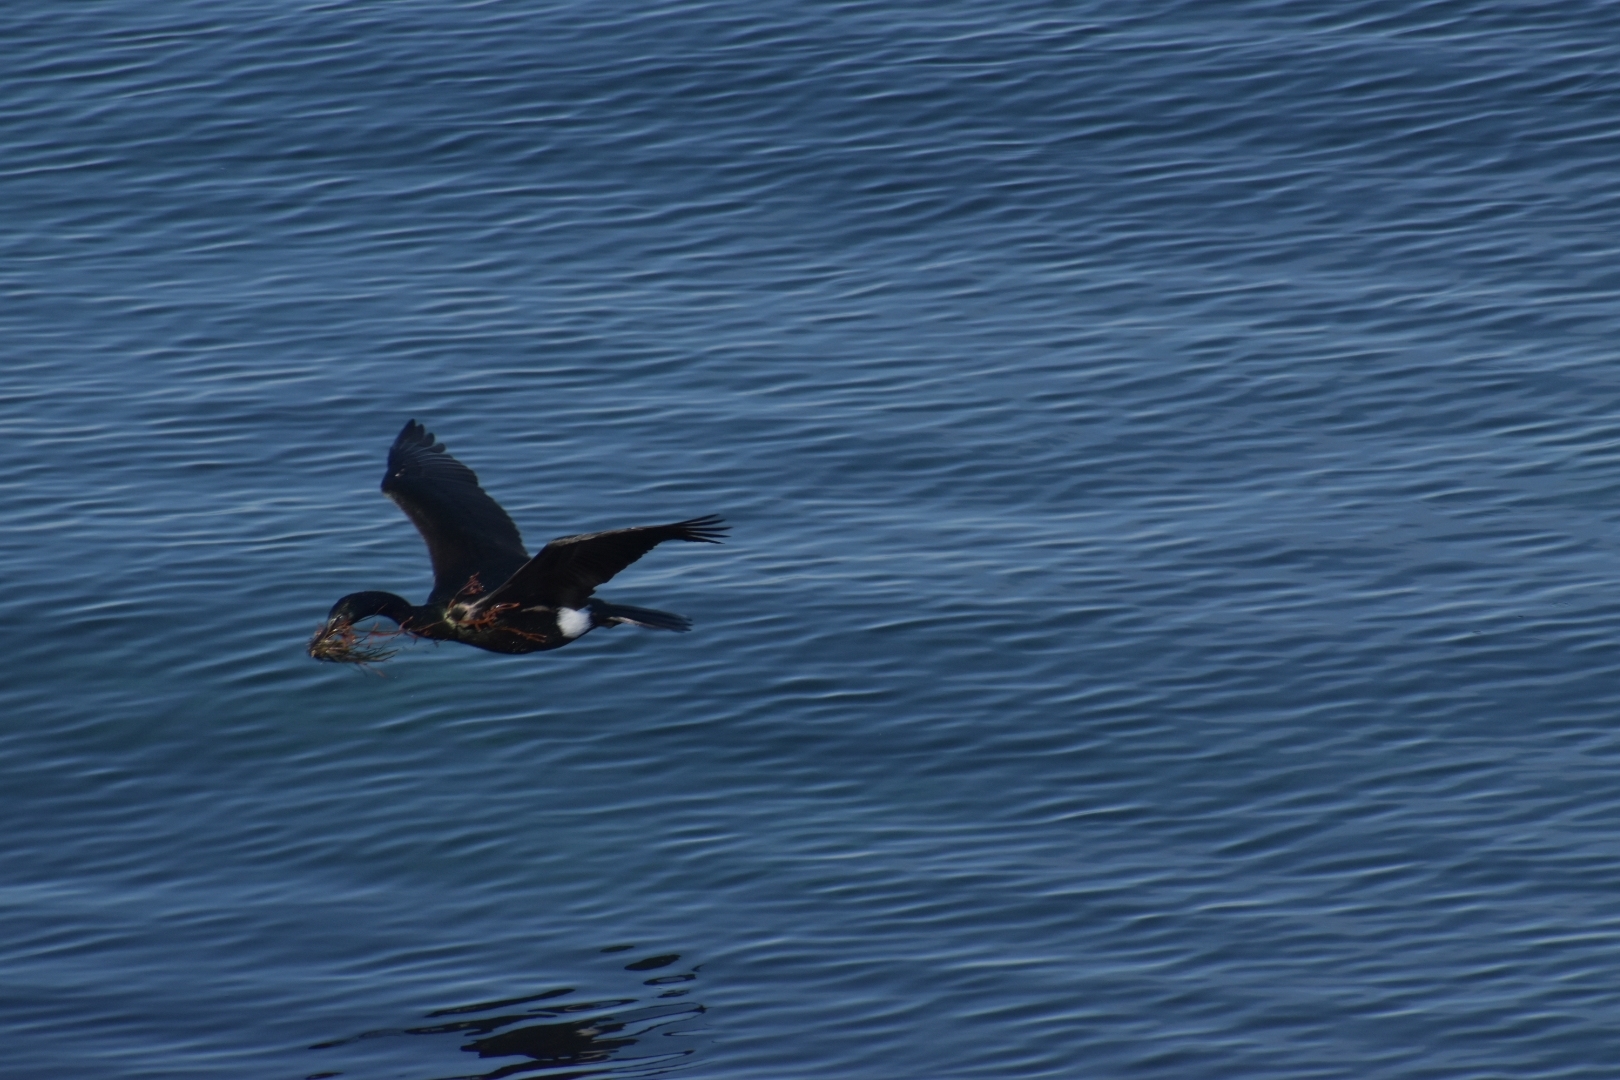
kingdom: Animalia
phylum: Chordata
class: Aves
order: Suliformes
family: Phalacrocoracidae
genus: Phalacrocorax
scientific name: Phalacrocorax pelagicus
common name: Pelagic cormorant
